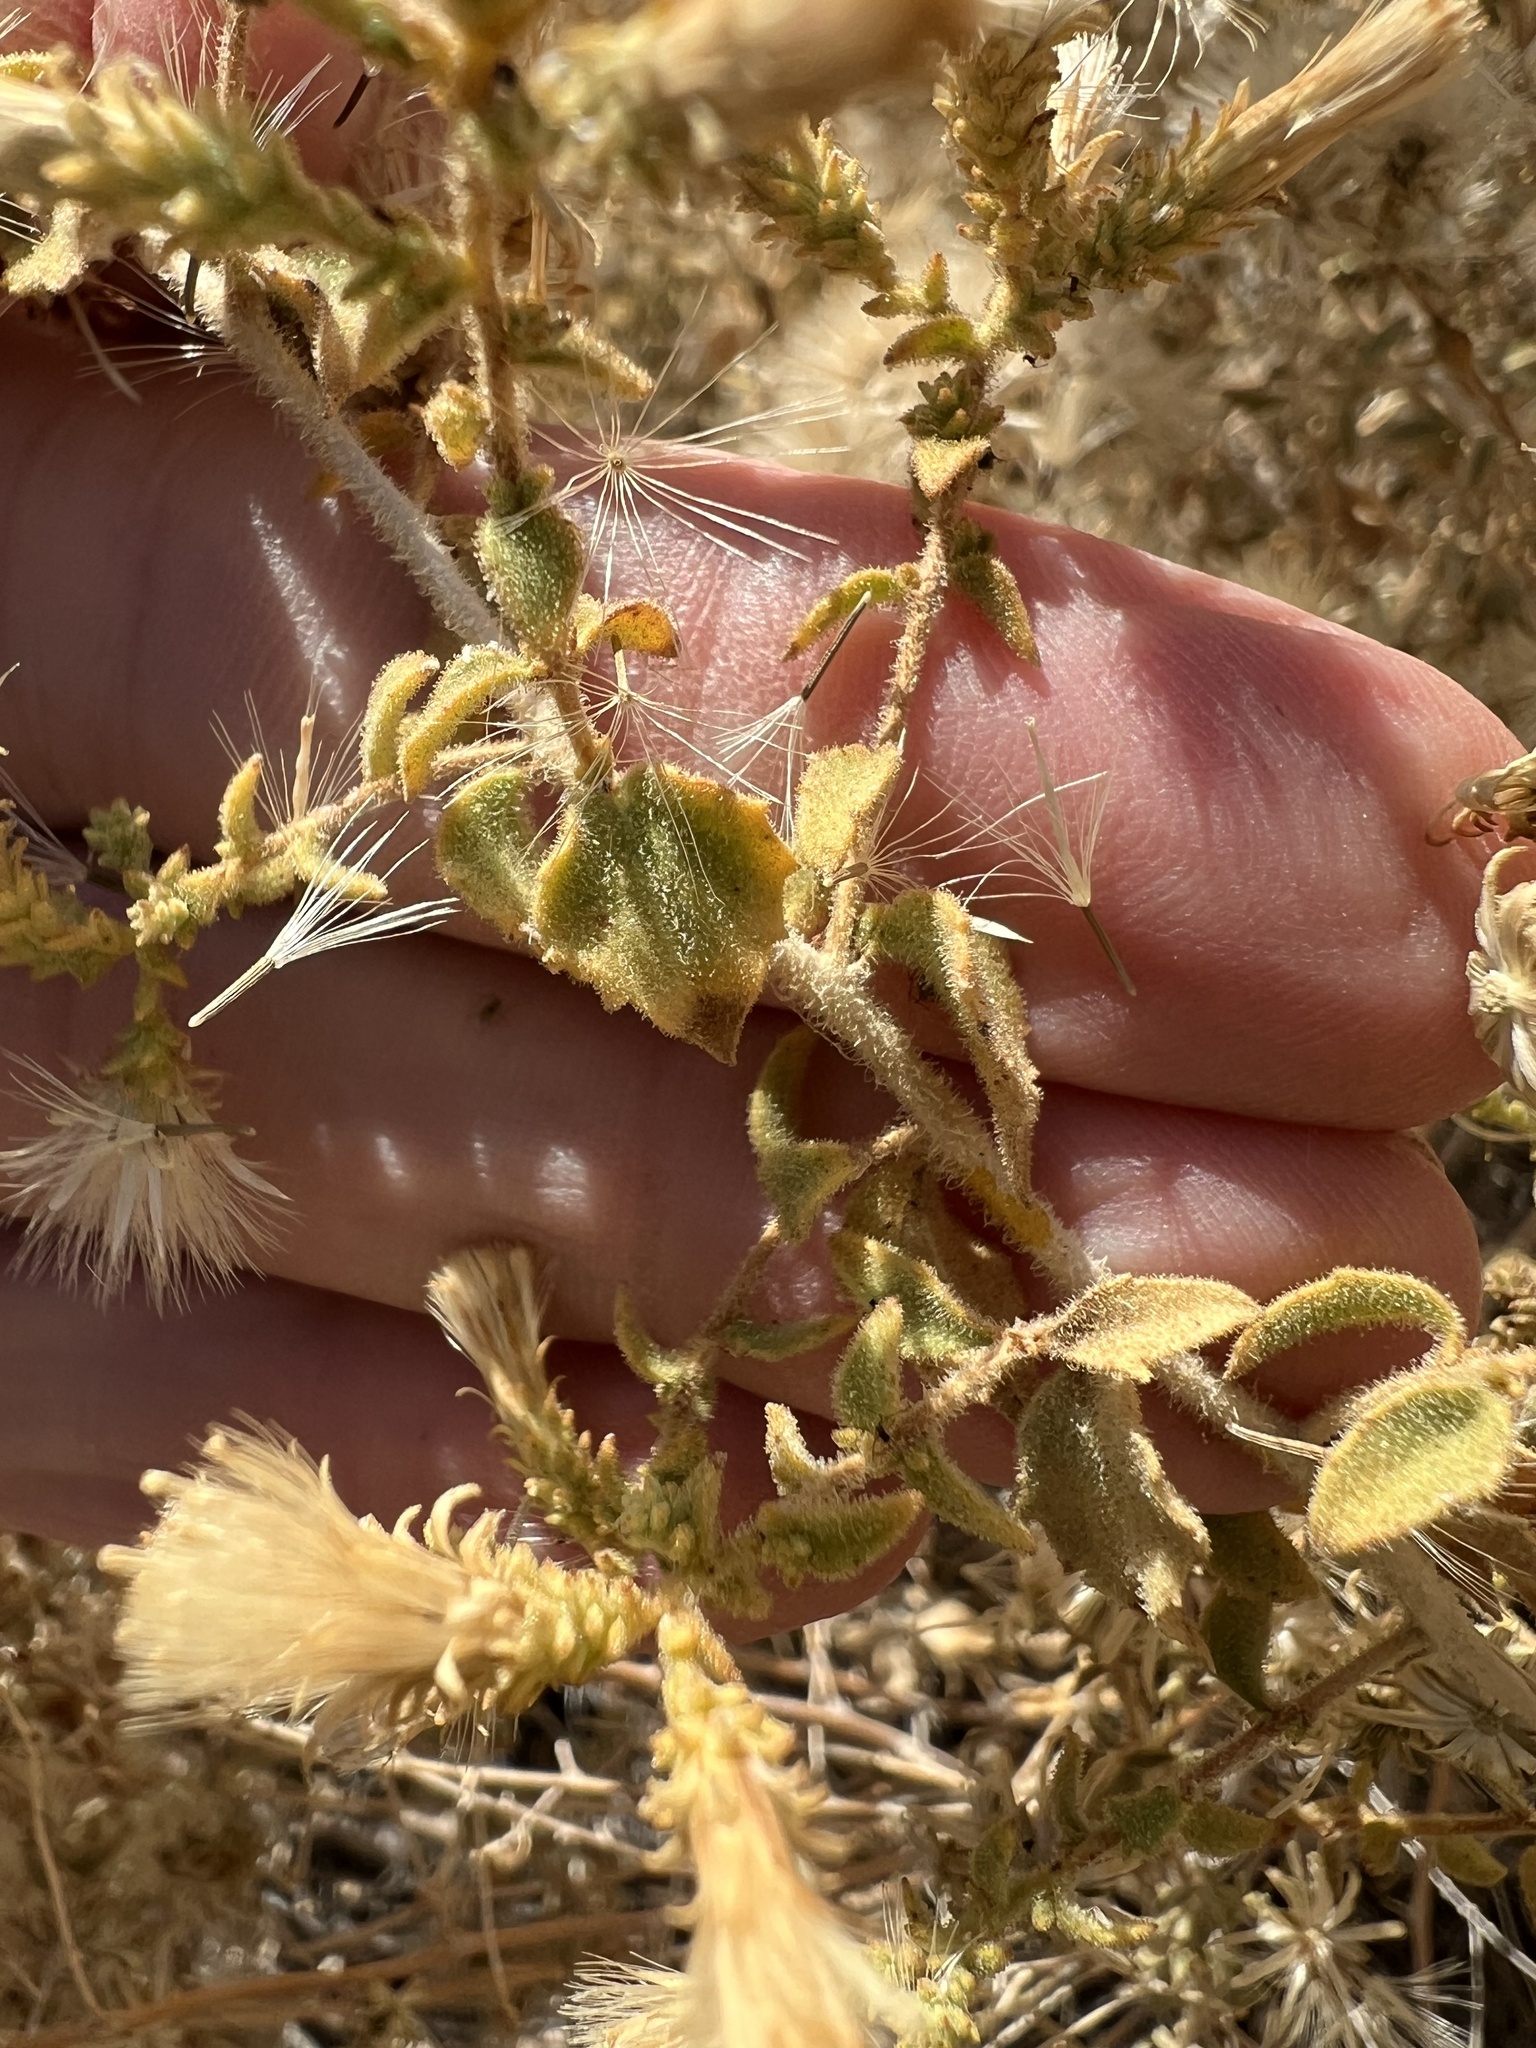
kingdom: Plantae
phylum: Tracheophyta
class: Magnoliopsida
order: Asterales
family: Asteraceae
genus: Brickellia
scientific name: Brickellia microphylla
